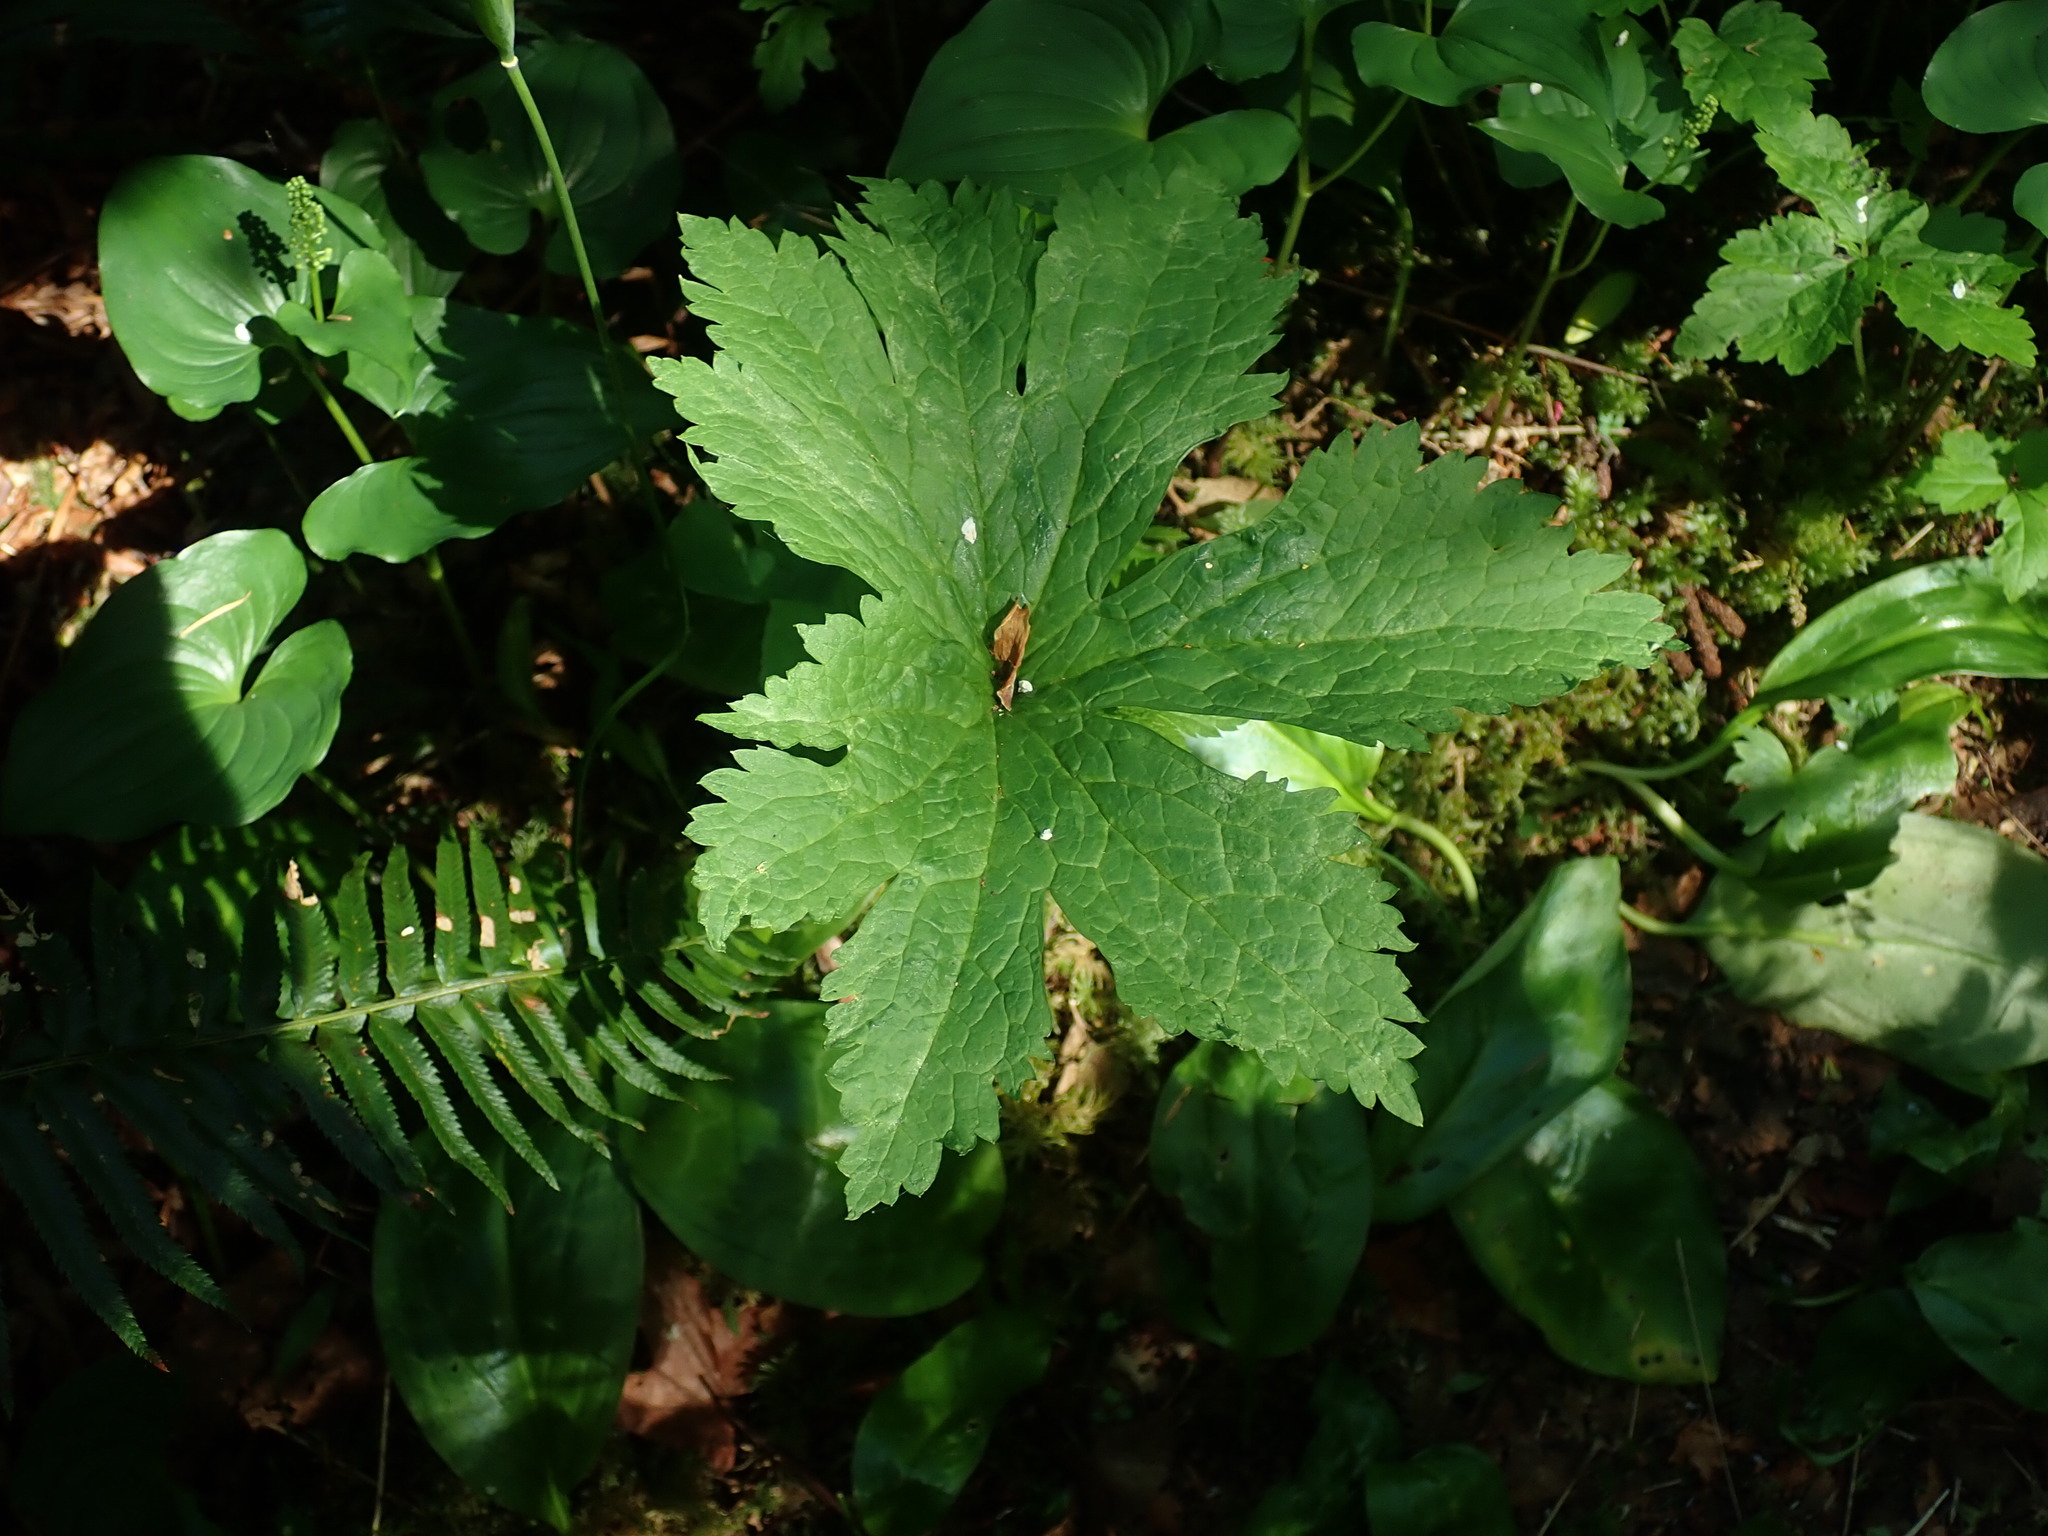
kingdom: Plantae
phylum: Tracheophyta
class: Magnoliopsida
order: Ranunculales
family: Ranunculaceae
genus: Trautvetteria
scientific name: Trautvetteria carolinensis
